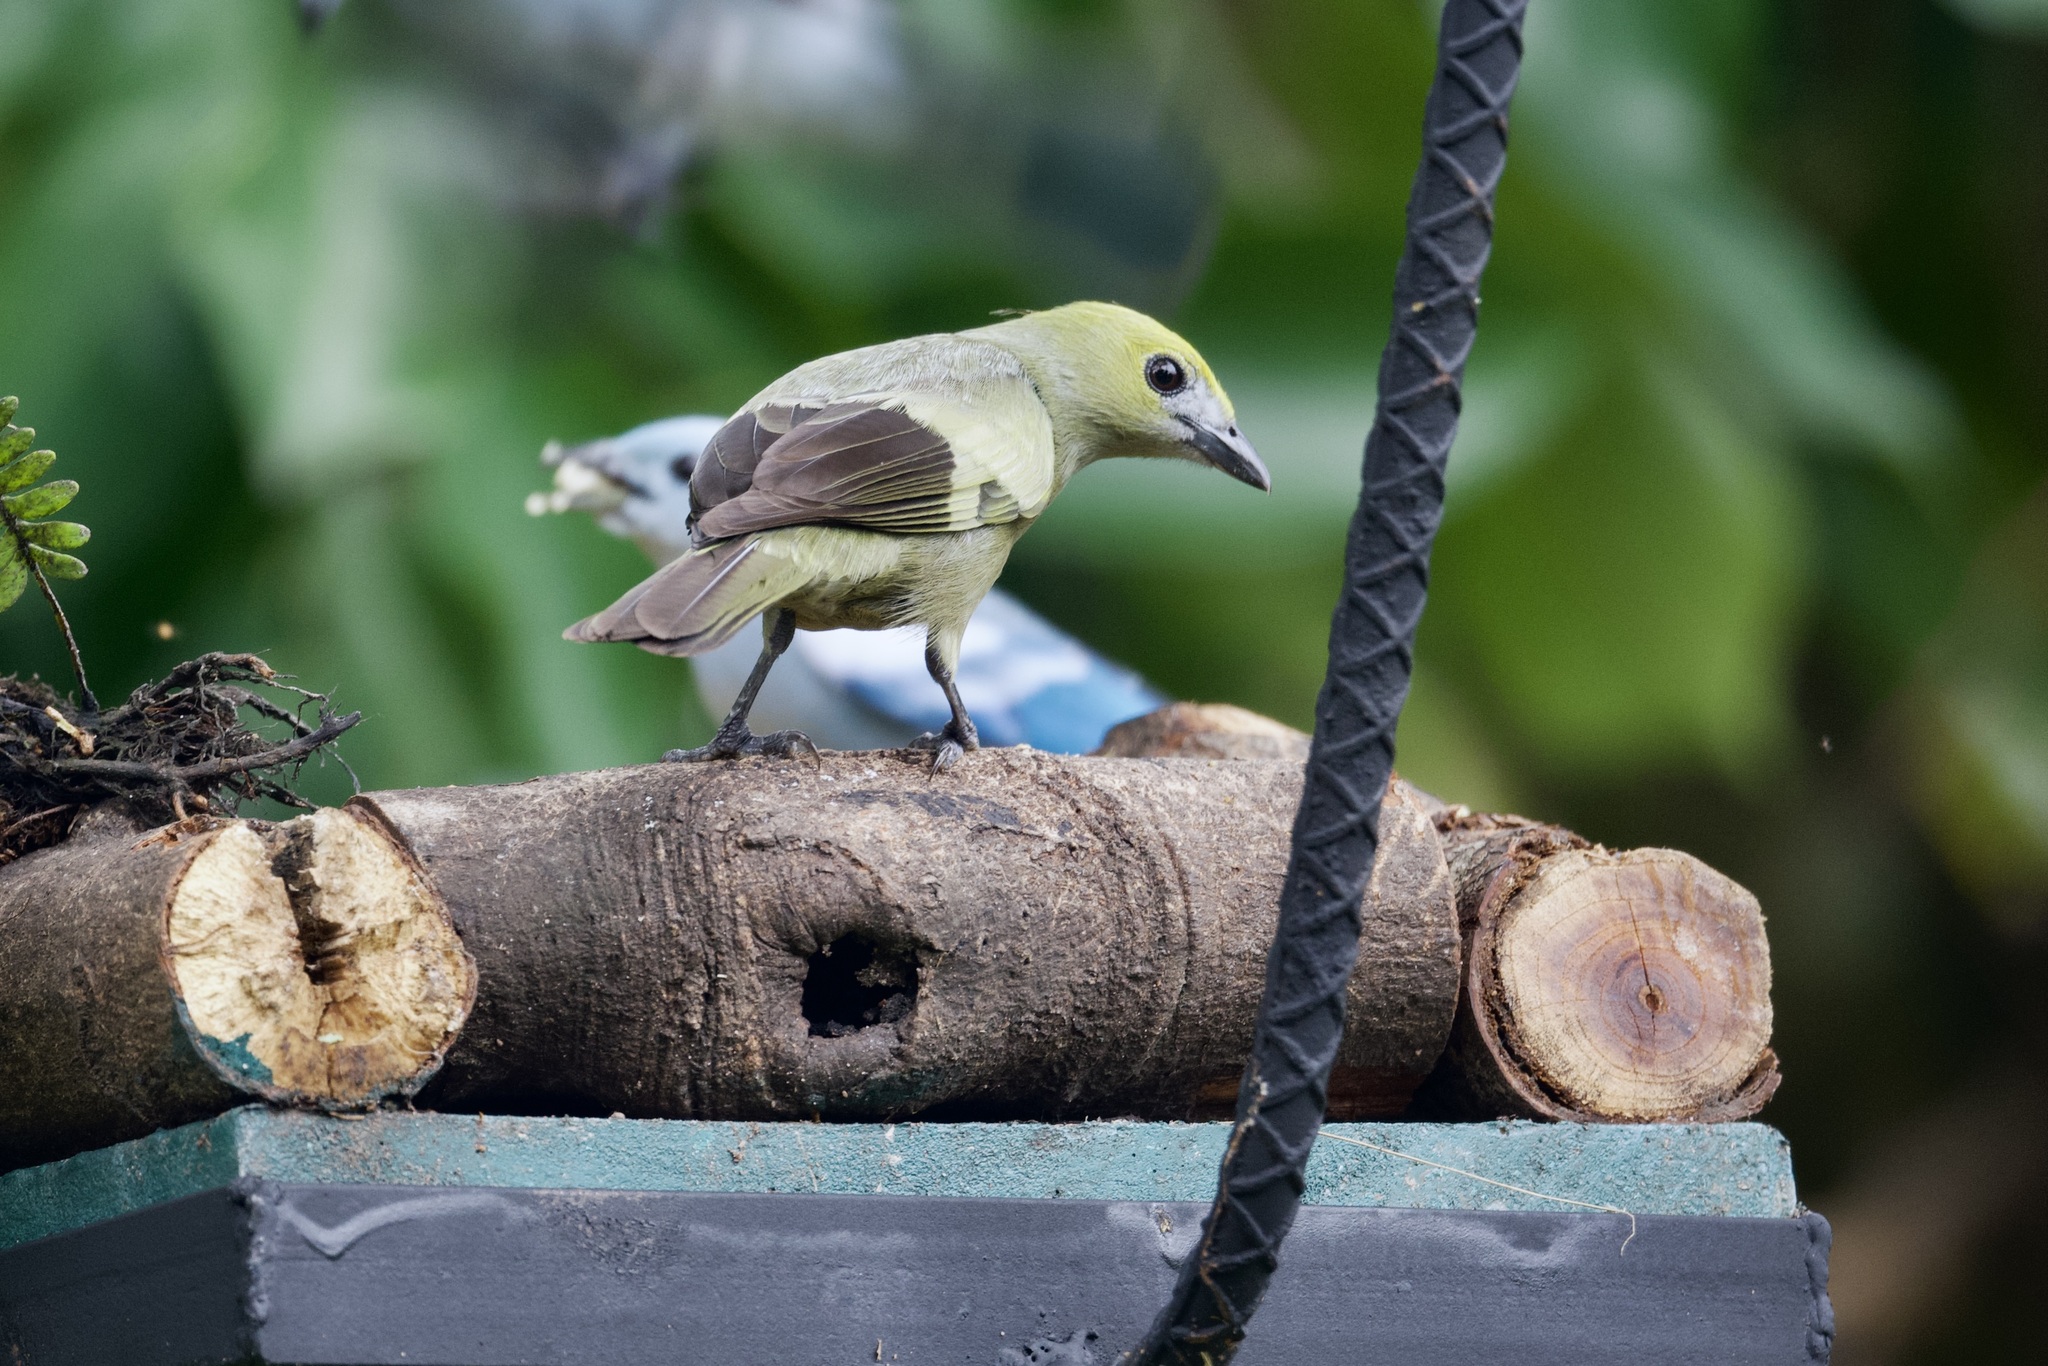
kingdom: Animalia
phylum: Chordata
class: Aves
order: Passeriformes
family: Thraupidae
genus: Thraupis
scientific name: Thraupis palmarum
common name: Palm tanager
